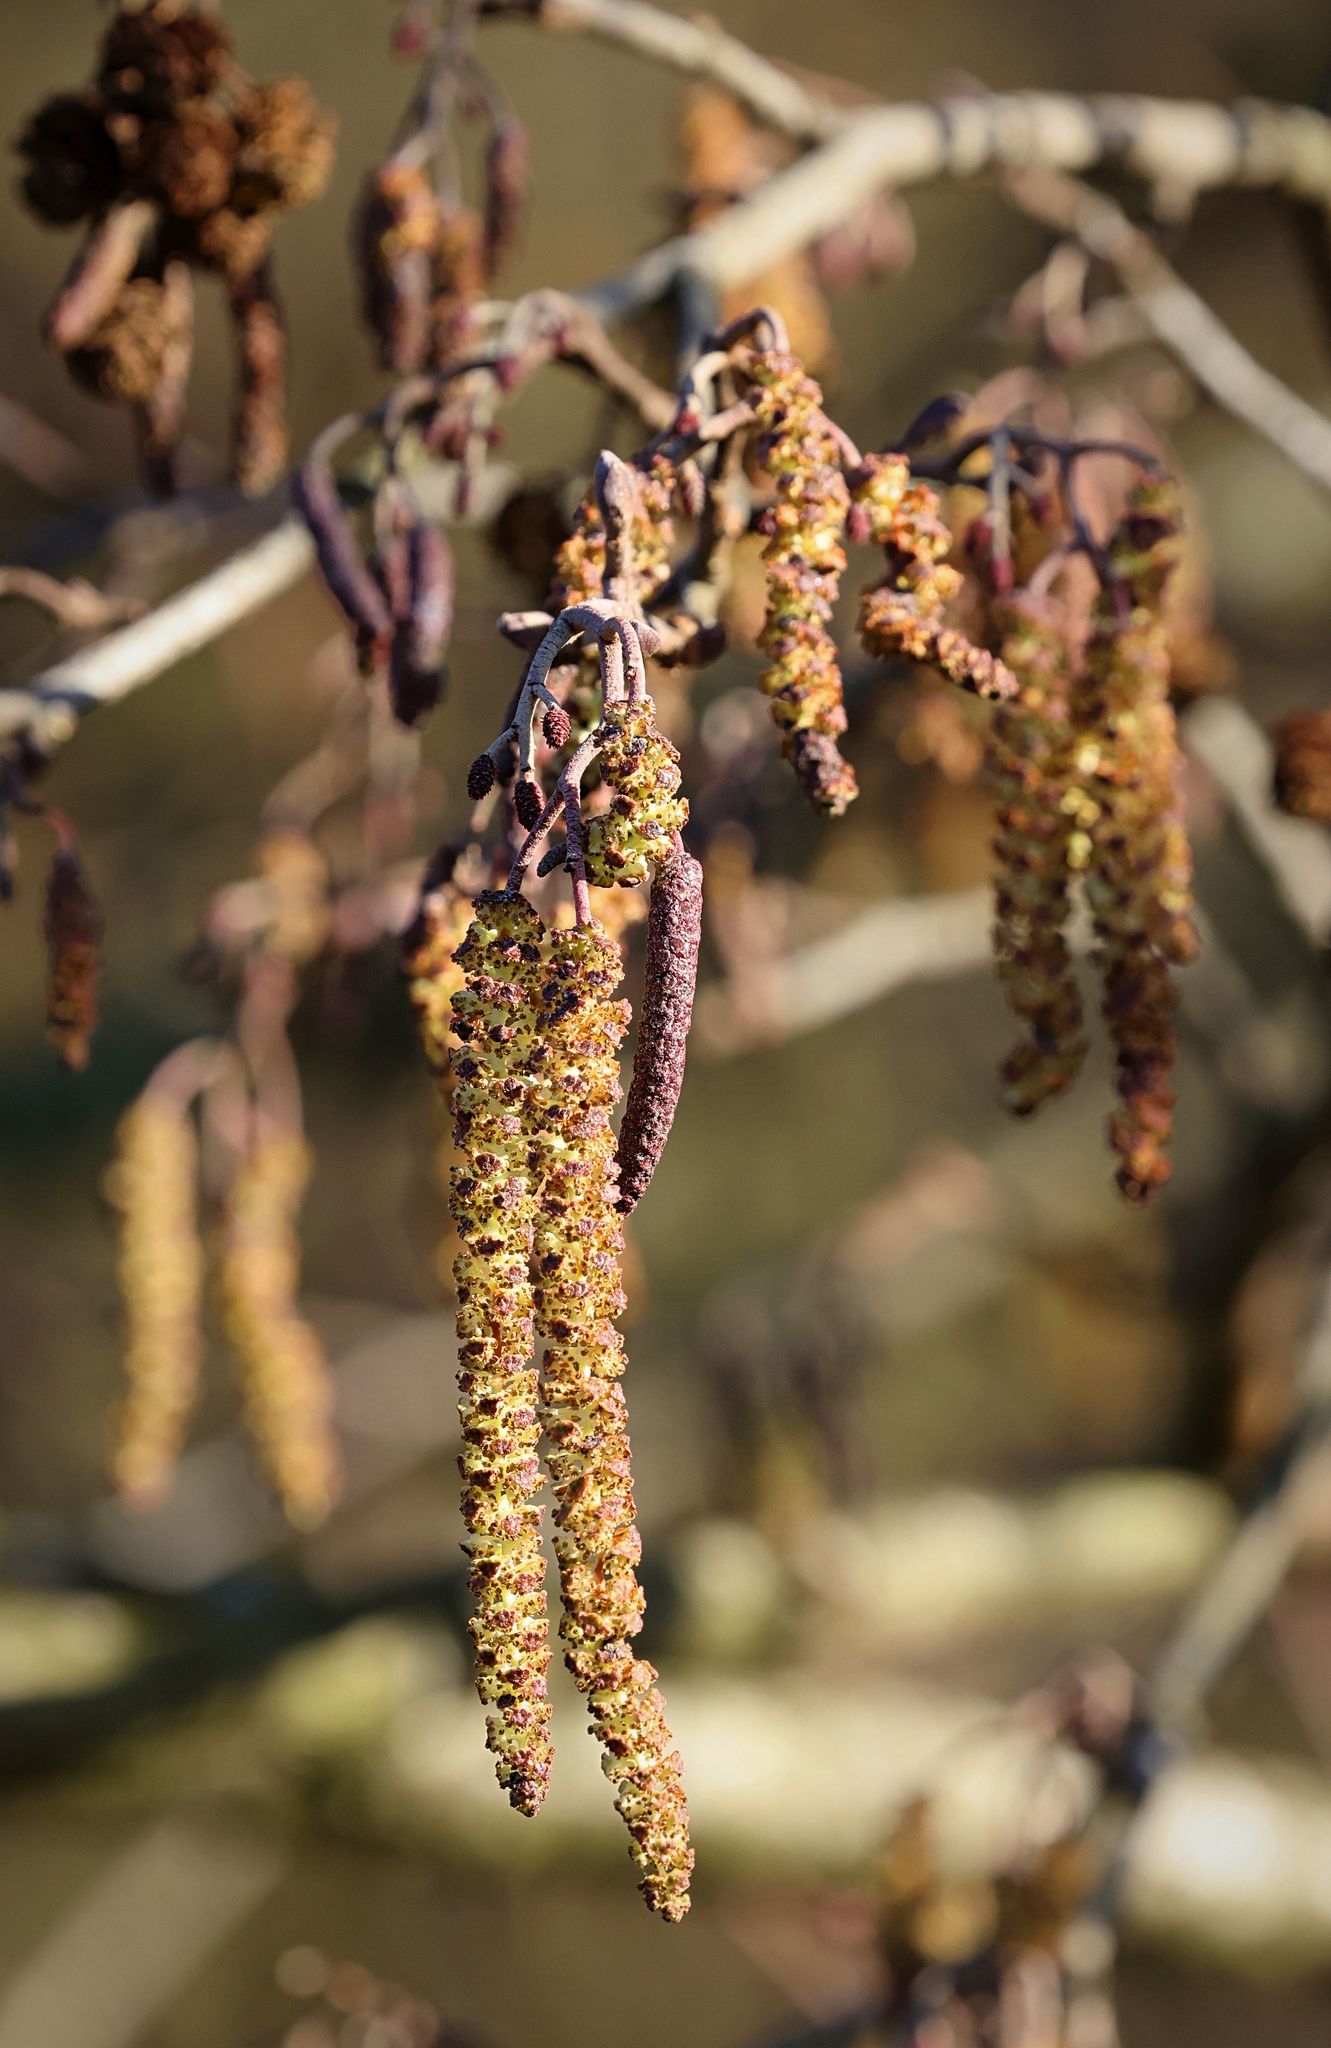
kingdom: Plantae
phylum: Tracheophyta
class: Magnoliopsida
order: Fagales
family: Betulaceae
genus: Alnus
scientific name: Alnus glutinosa
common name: Black alder
